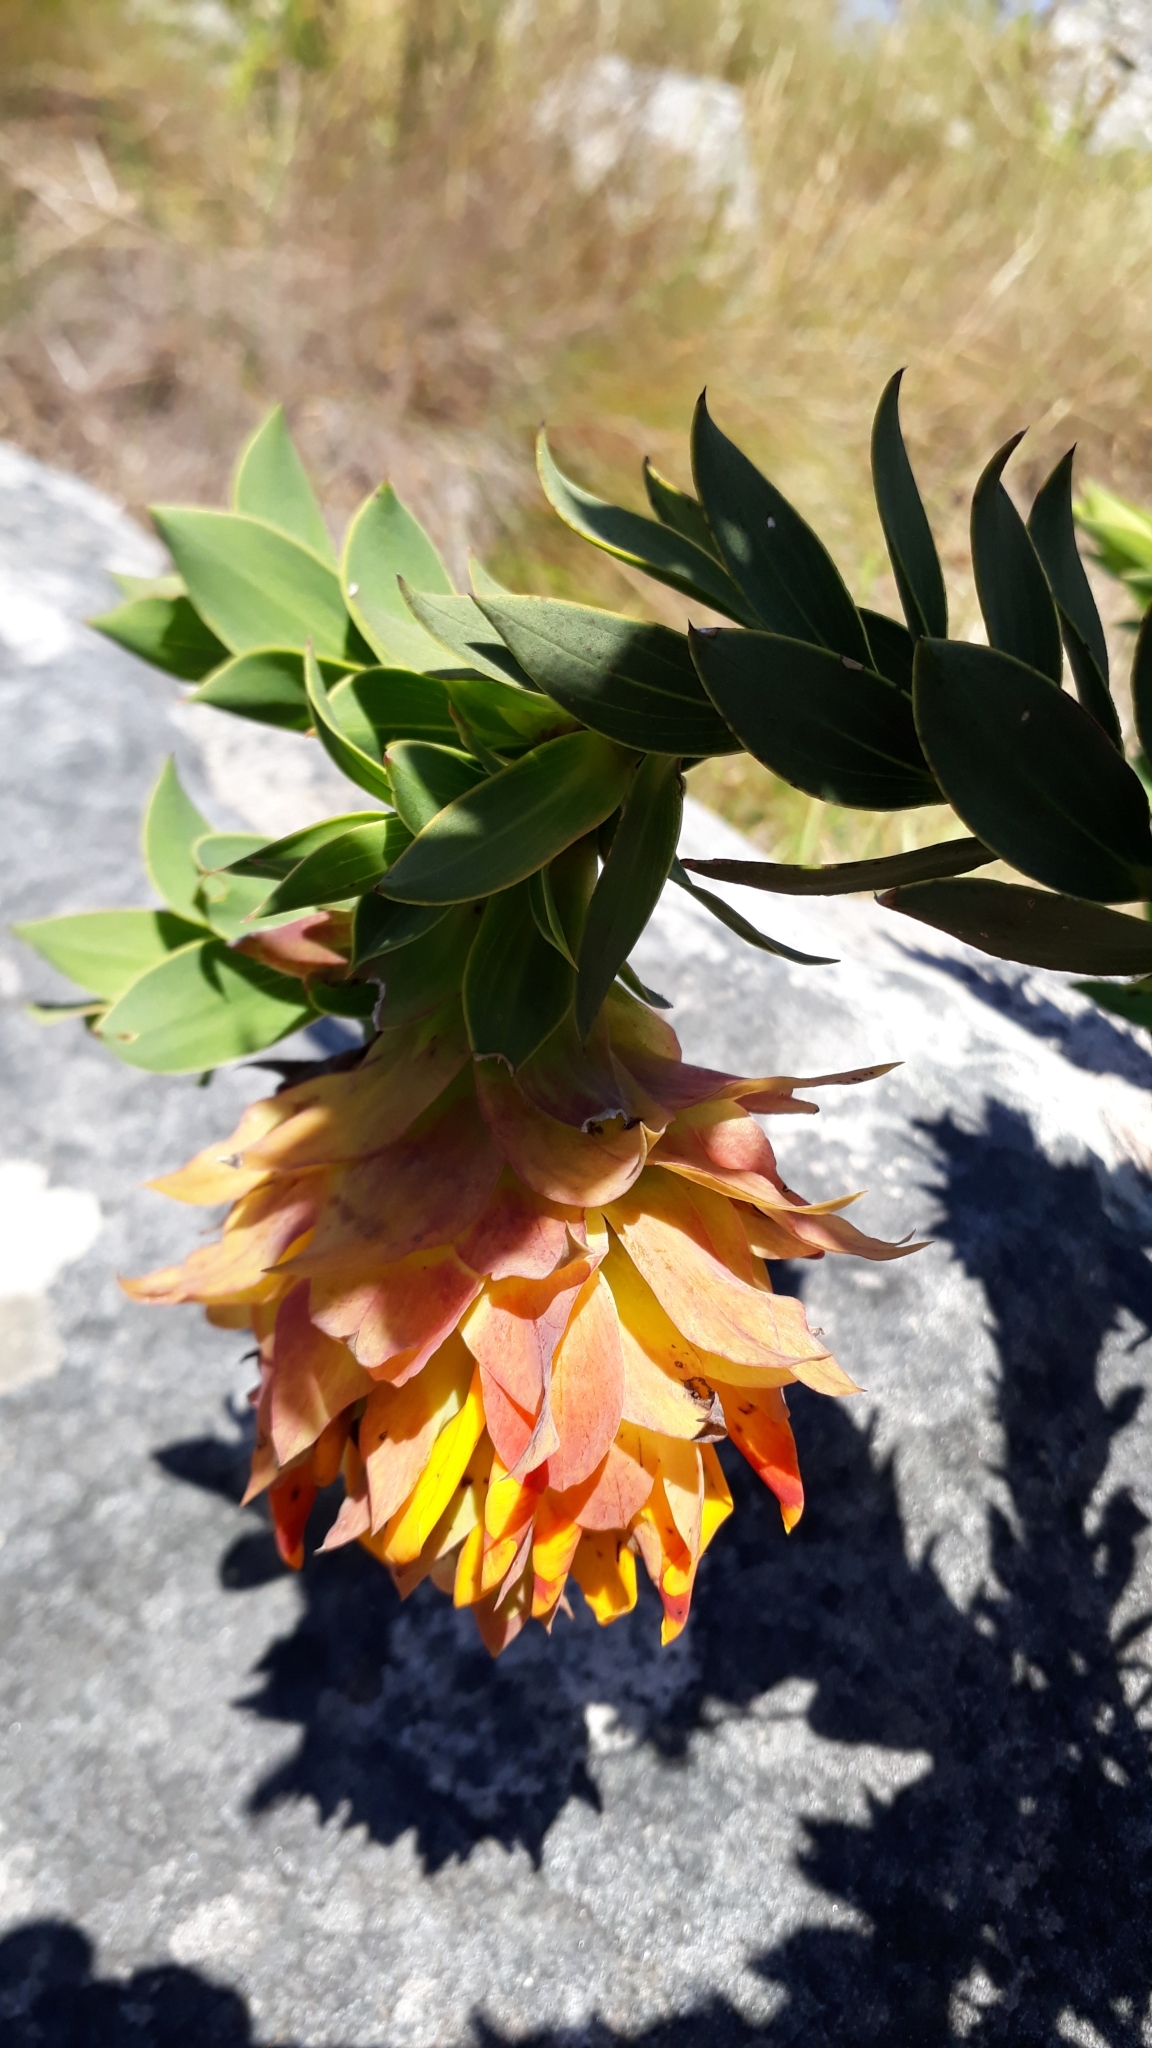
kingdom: Plantae
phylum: Tracheophyta
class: Magnoliopsida
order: Fabales
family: Fabaceae
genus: Liparia
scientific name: Liparia splendens
